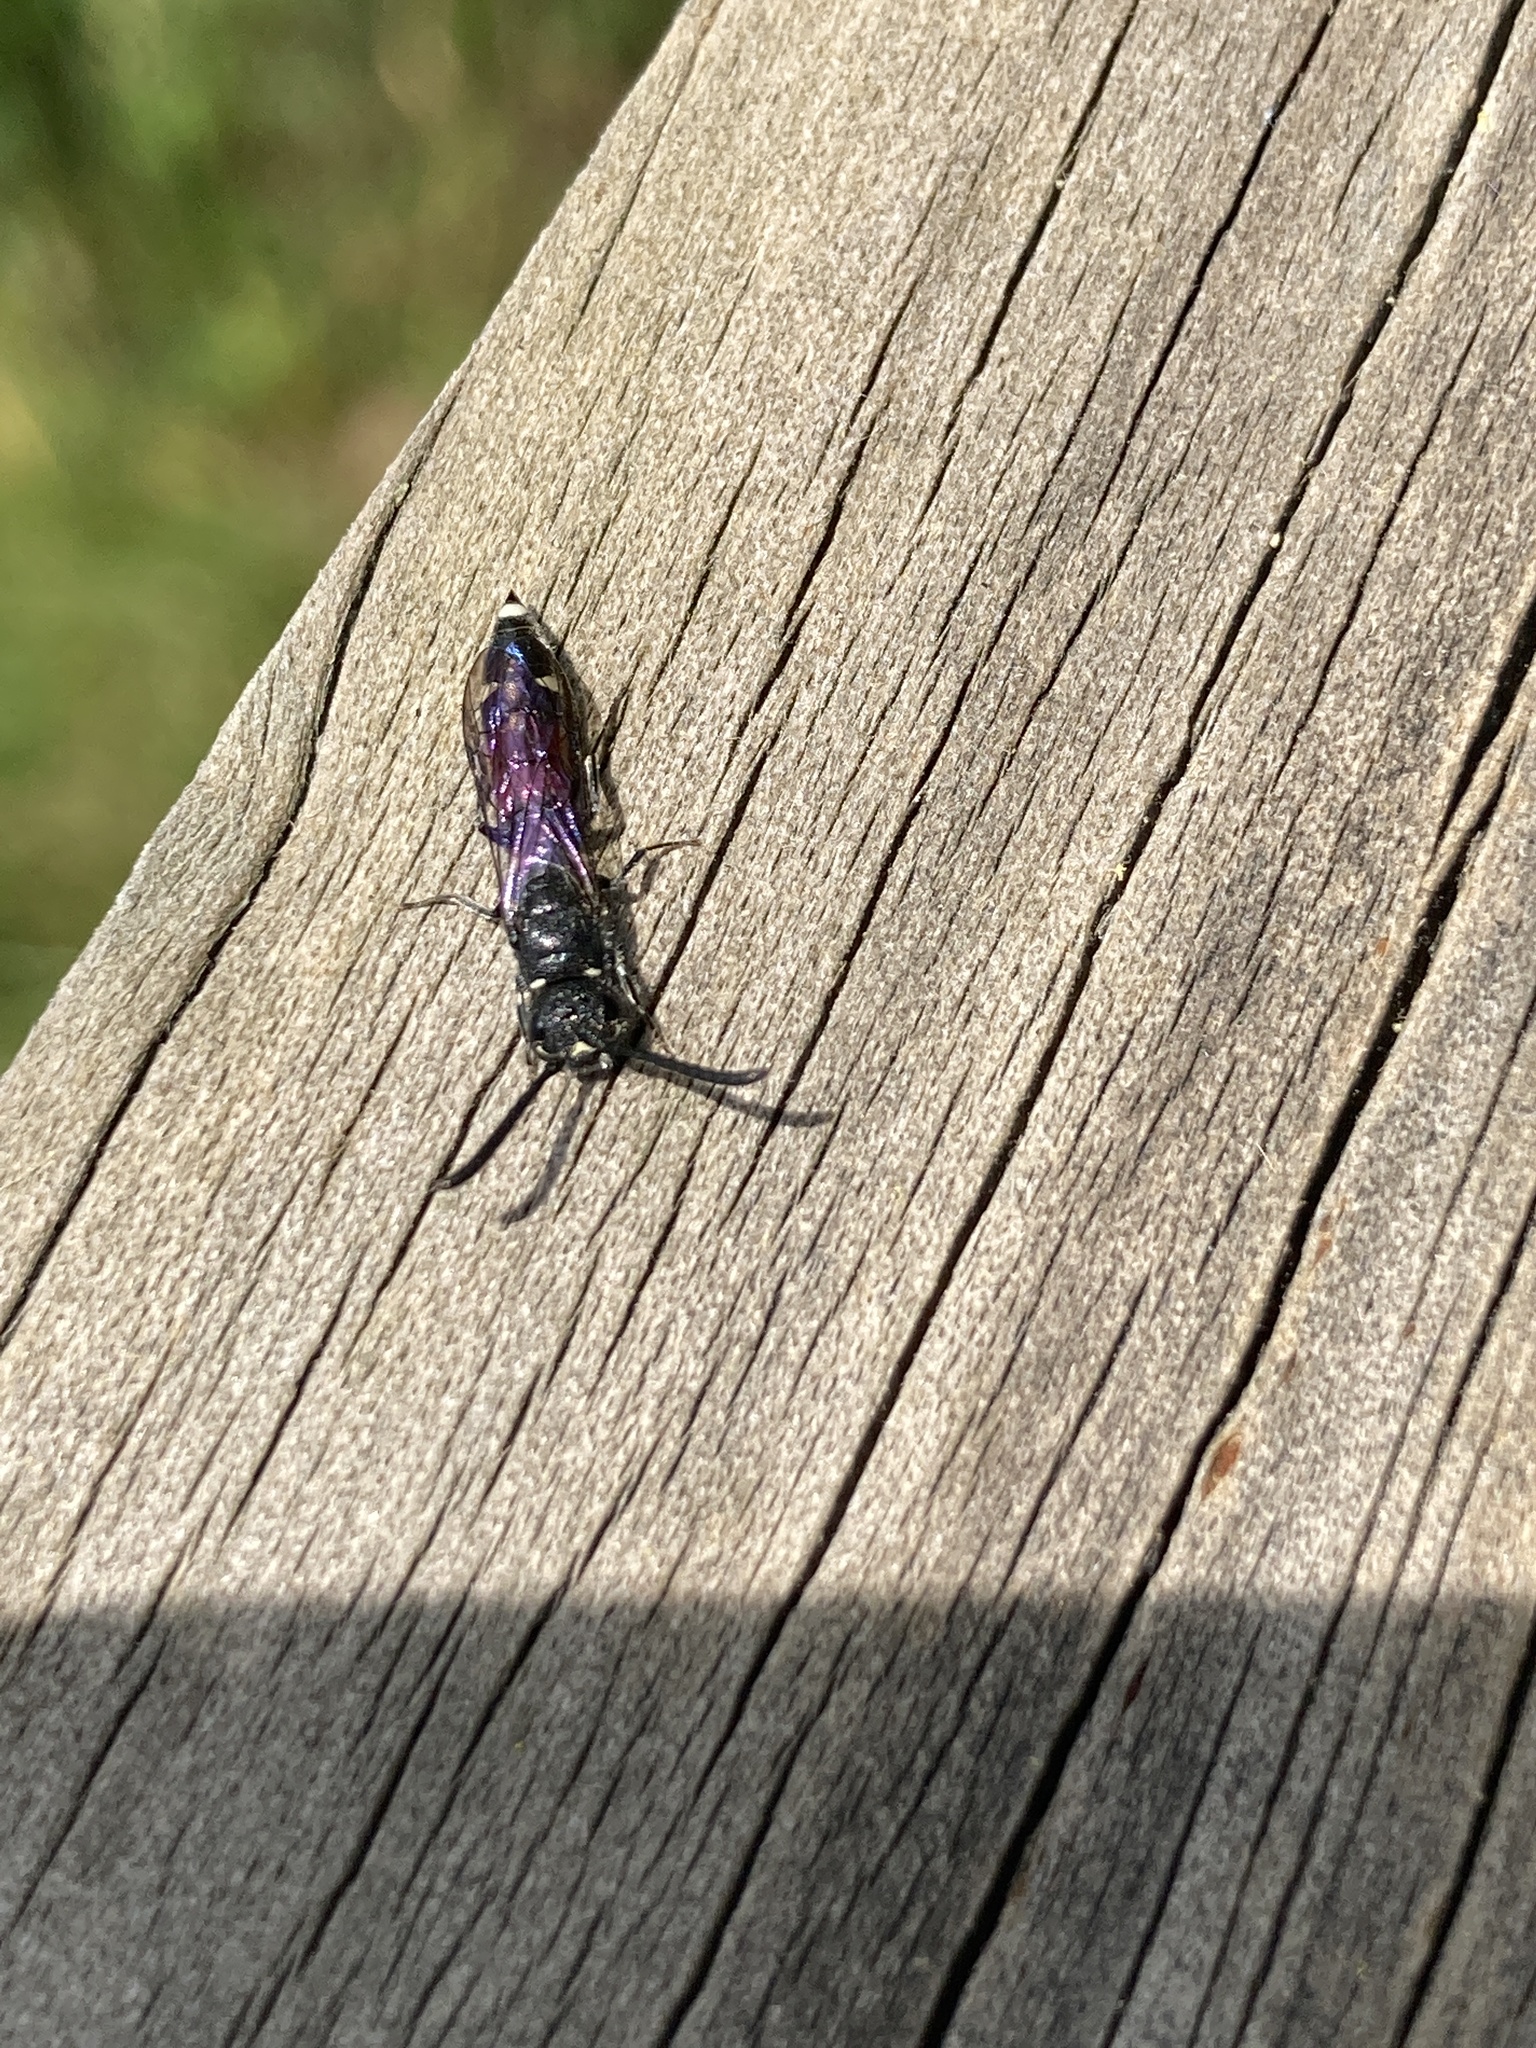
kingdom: Animalia
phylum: Arthropoda
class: Insecta
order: Hymenoptera
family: Sapygidae
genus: Sapyga
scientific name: Sapyga quinquepunctata
